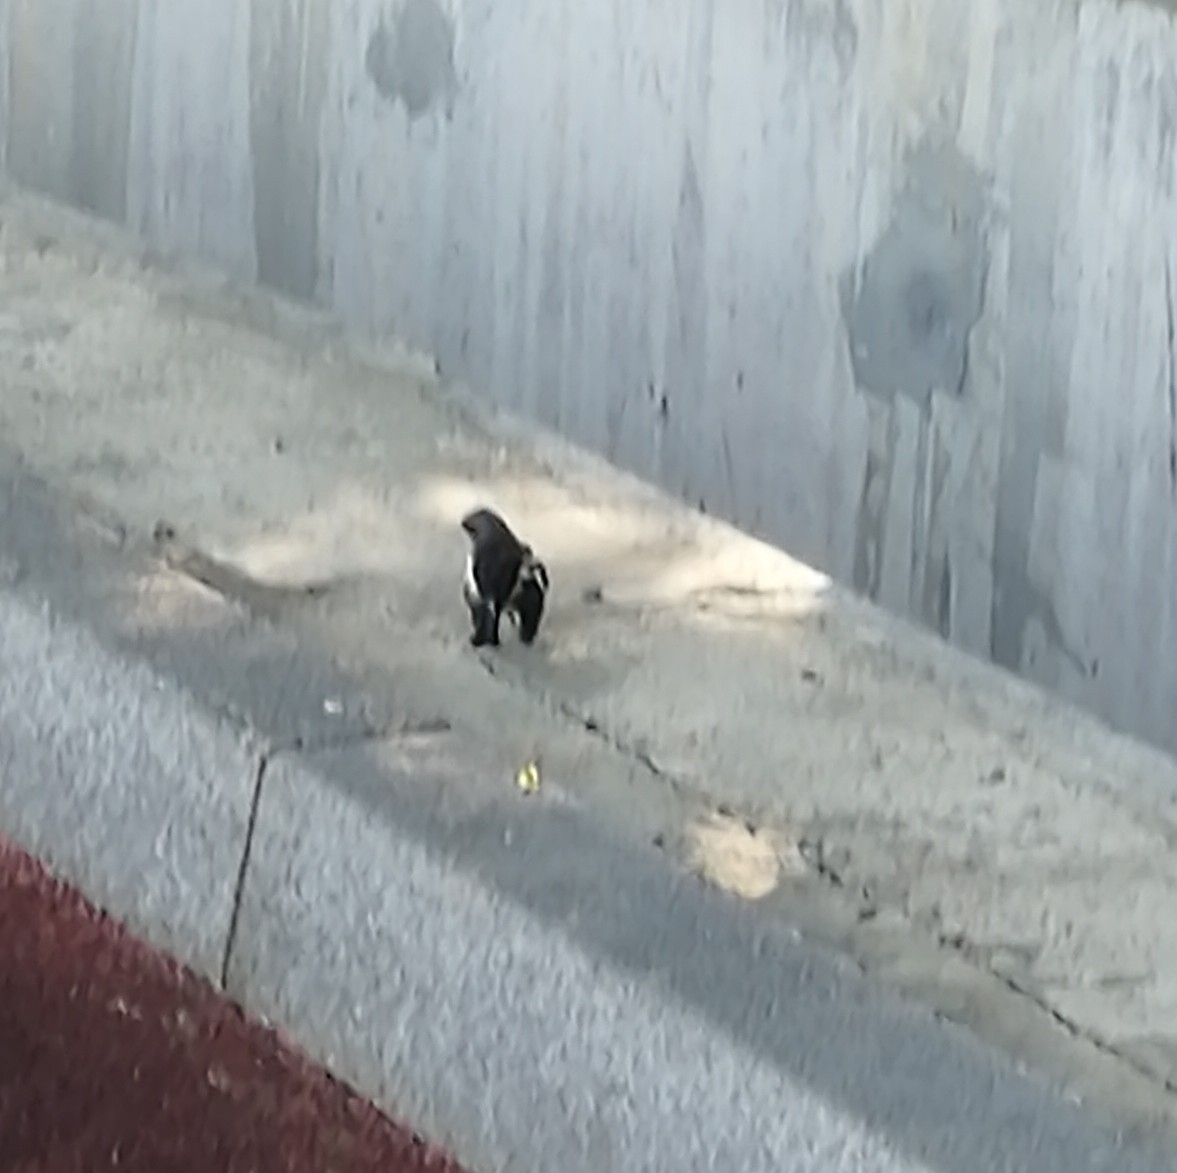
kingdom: Animalia
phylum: Chordata
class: Aves
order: Passeriformes
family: Fringillidae
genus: Fringilla
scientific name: Fringilla coelebs
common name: Common chaffinch
